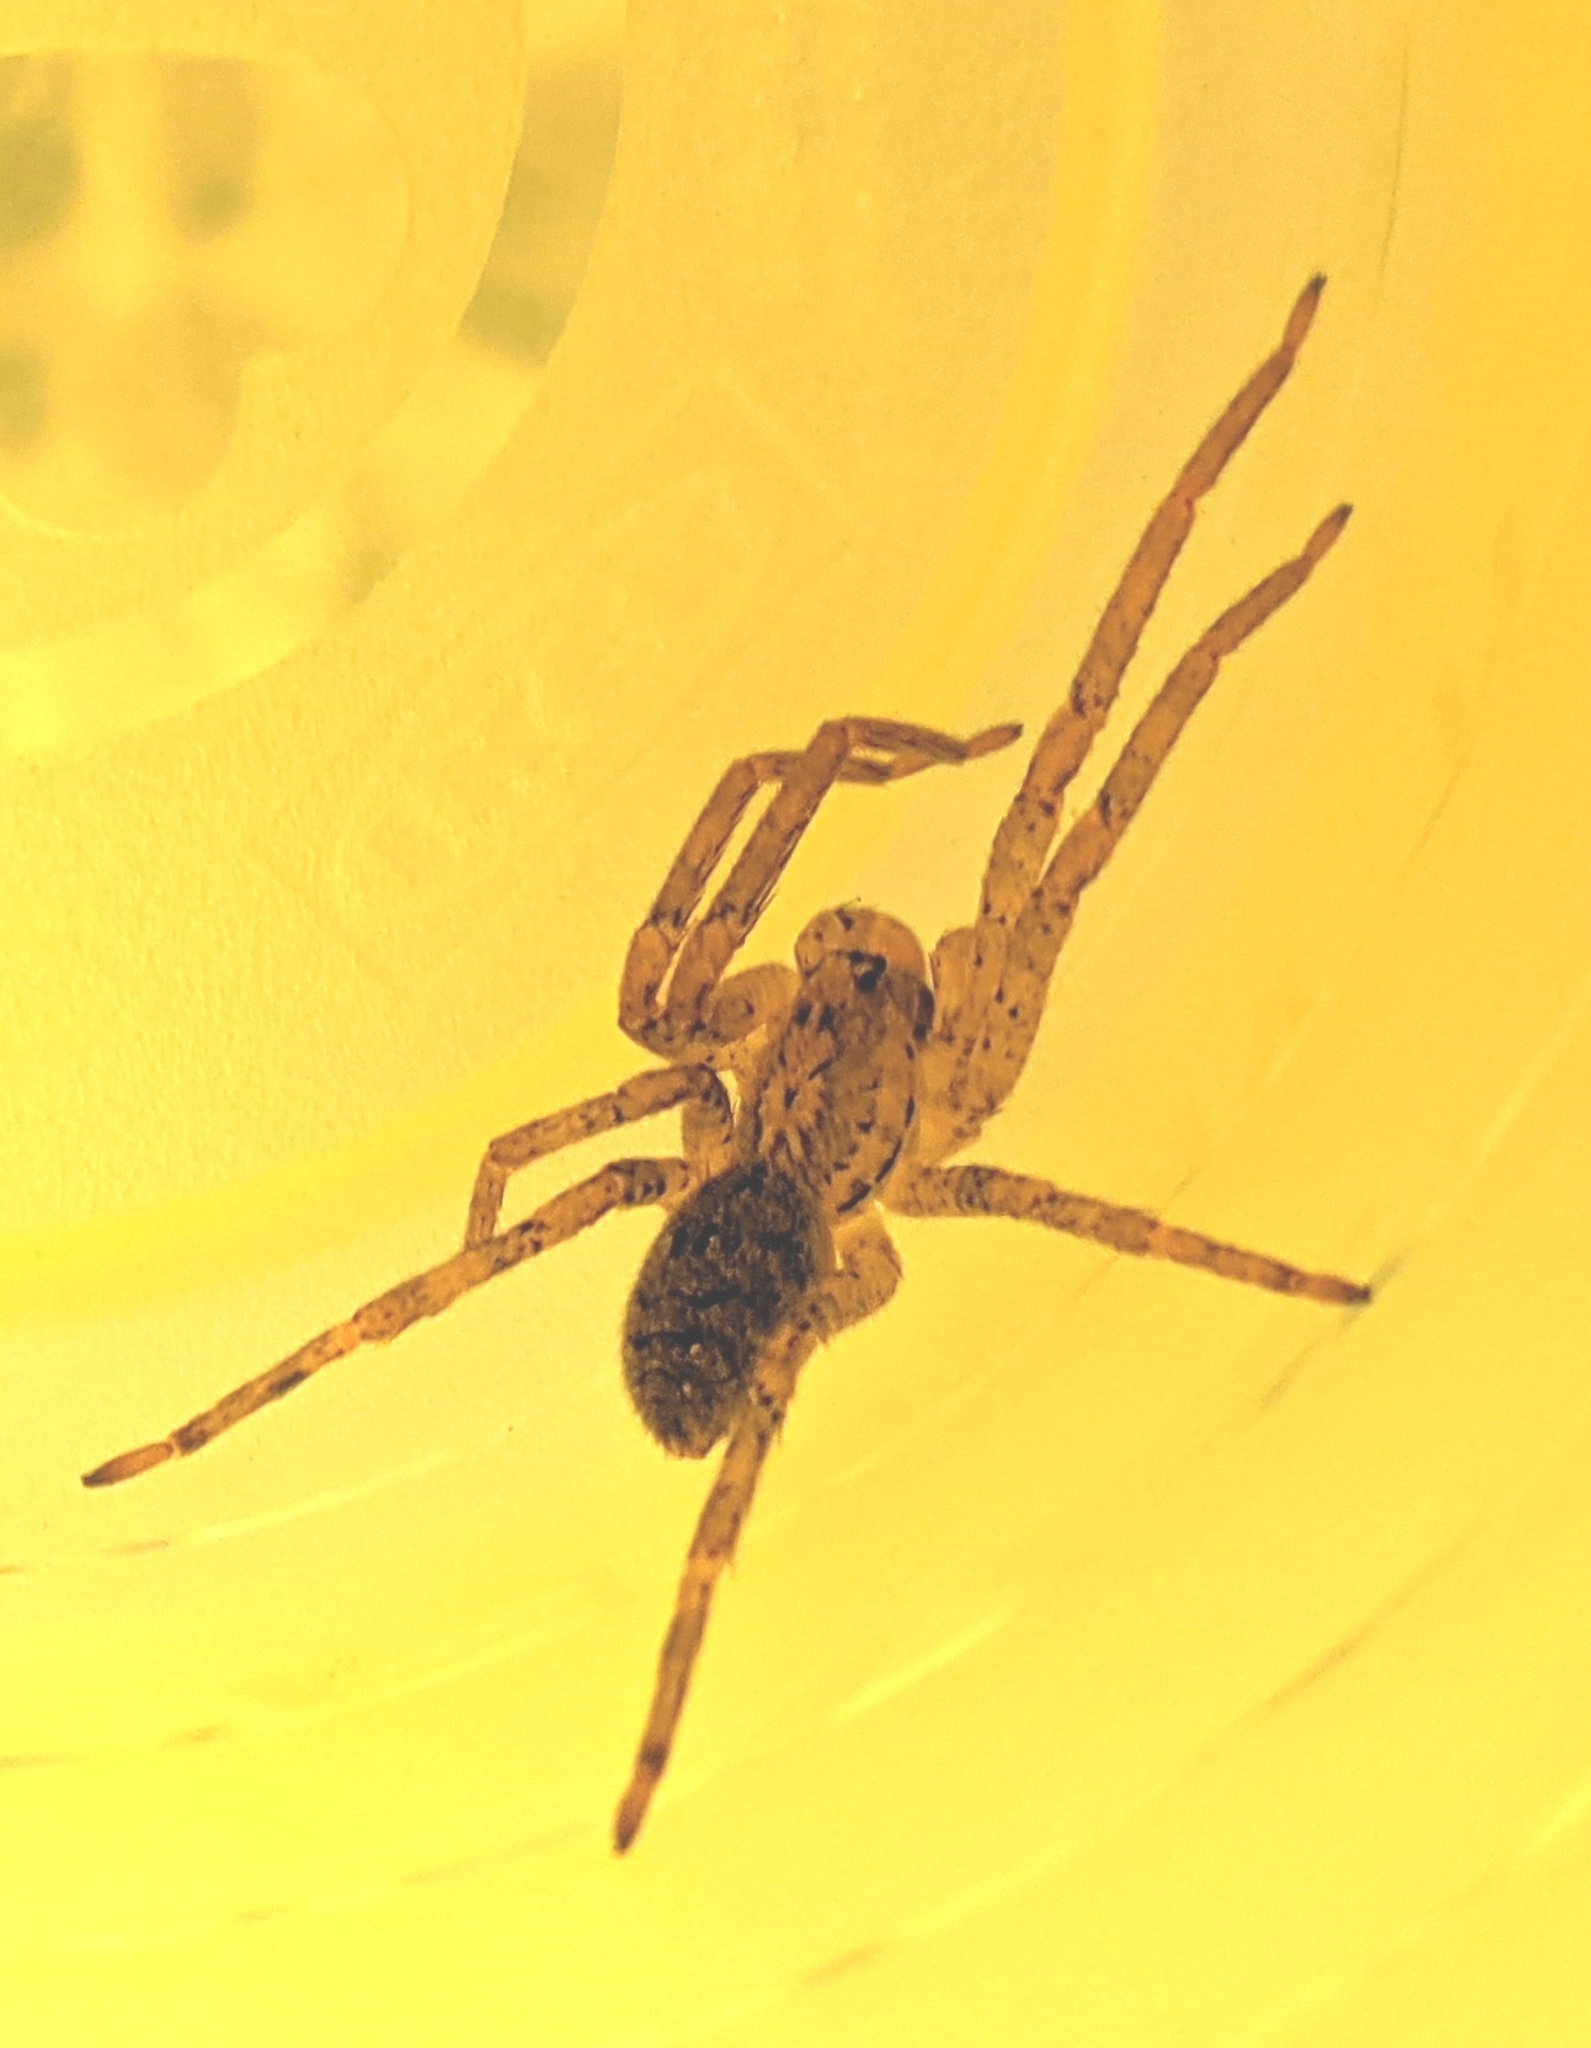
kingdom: Animalia
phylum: Arthropoda
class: Arachnida
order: Araneae
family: Zoropsidae
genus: Zoropsis
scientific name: Zoropsis spinimana
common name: Zoropsid spider
